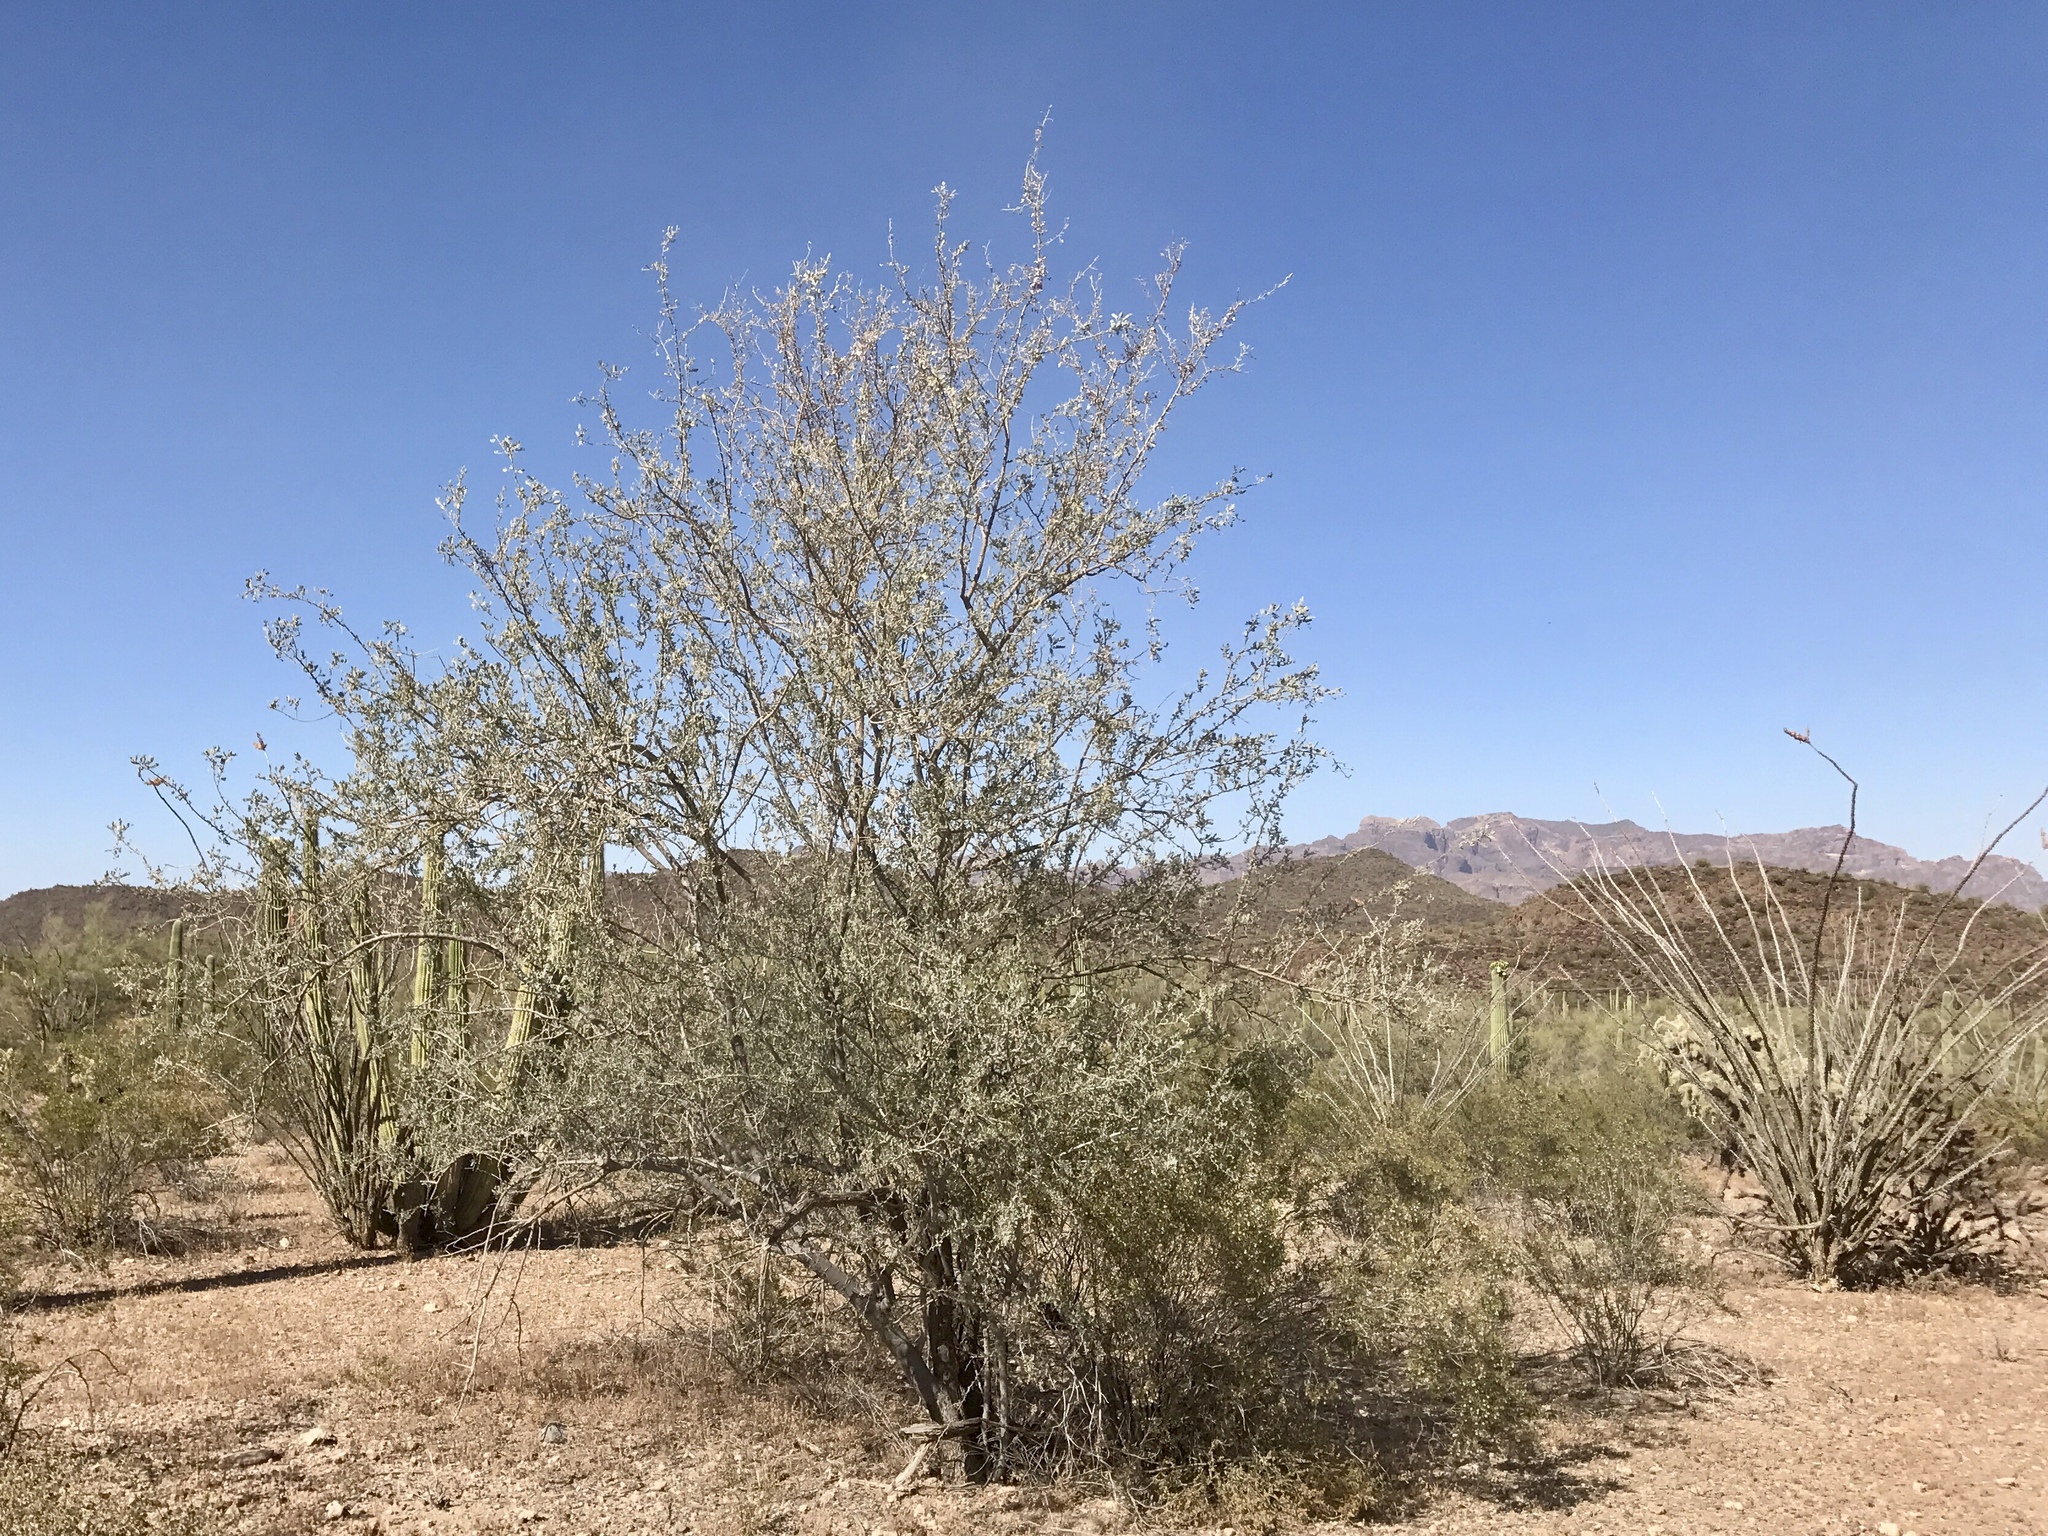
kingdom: Plantae
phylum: Tracheophyta
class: Magnoliopsida
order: Fabales
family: Fabaceae
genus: Olneya
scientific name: Olneya tesota
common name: Desert ironwood
